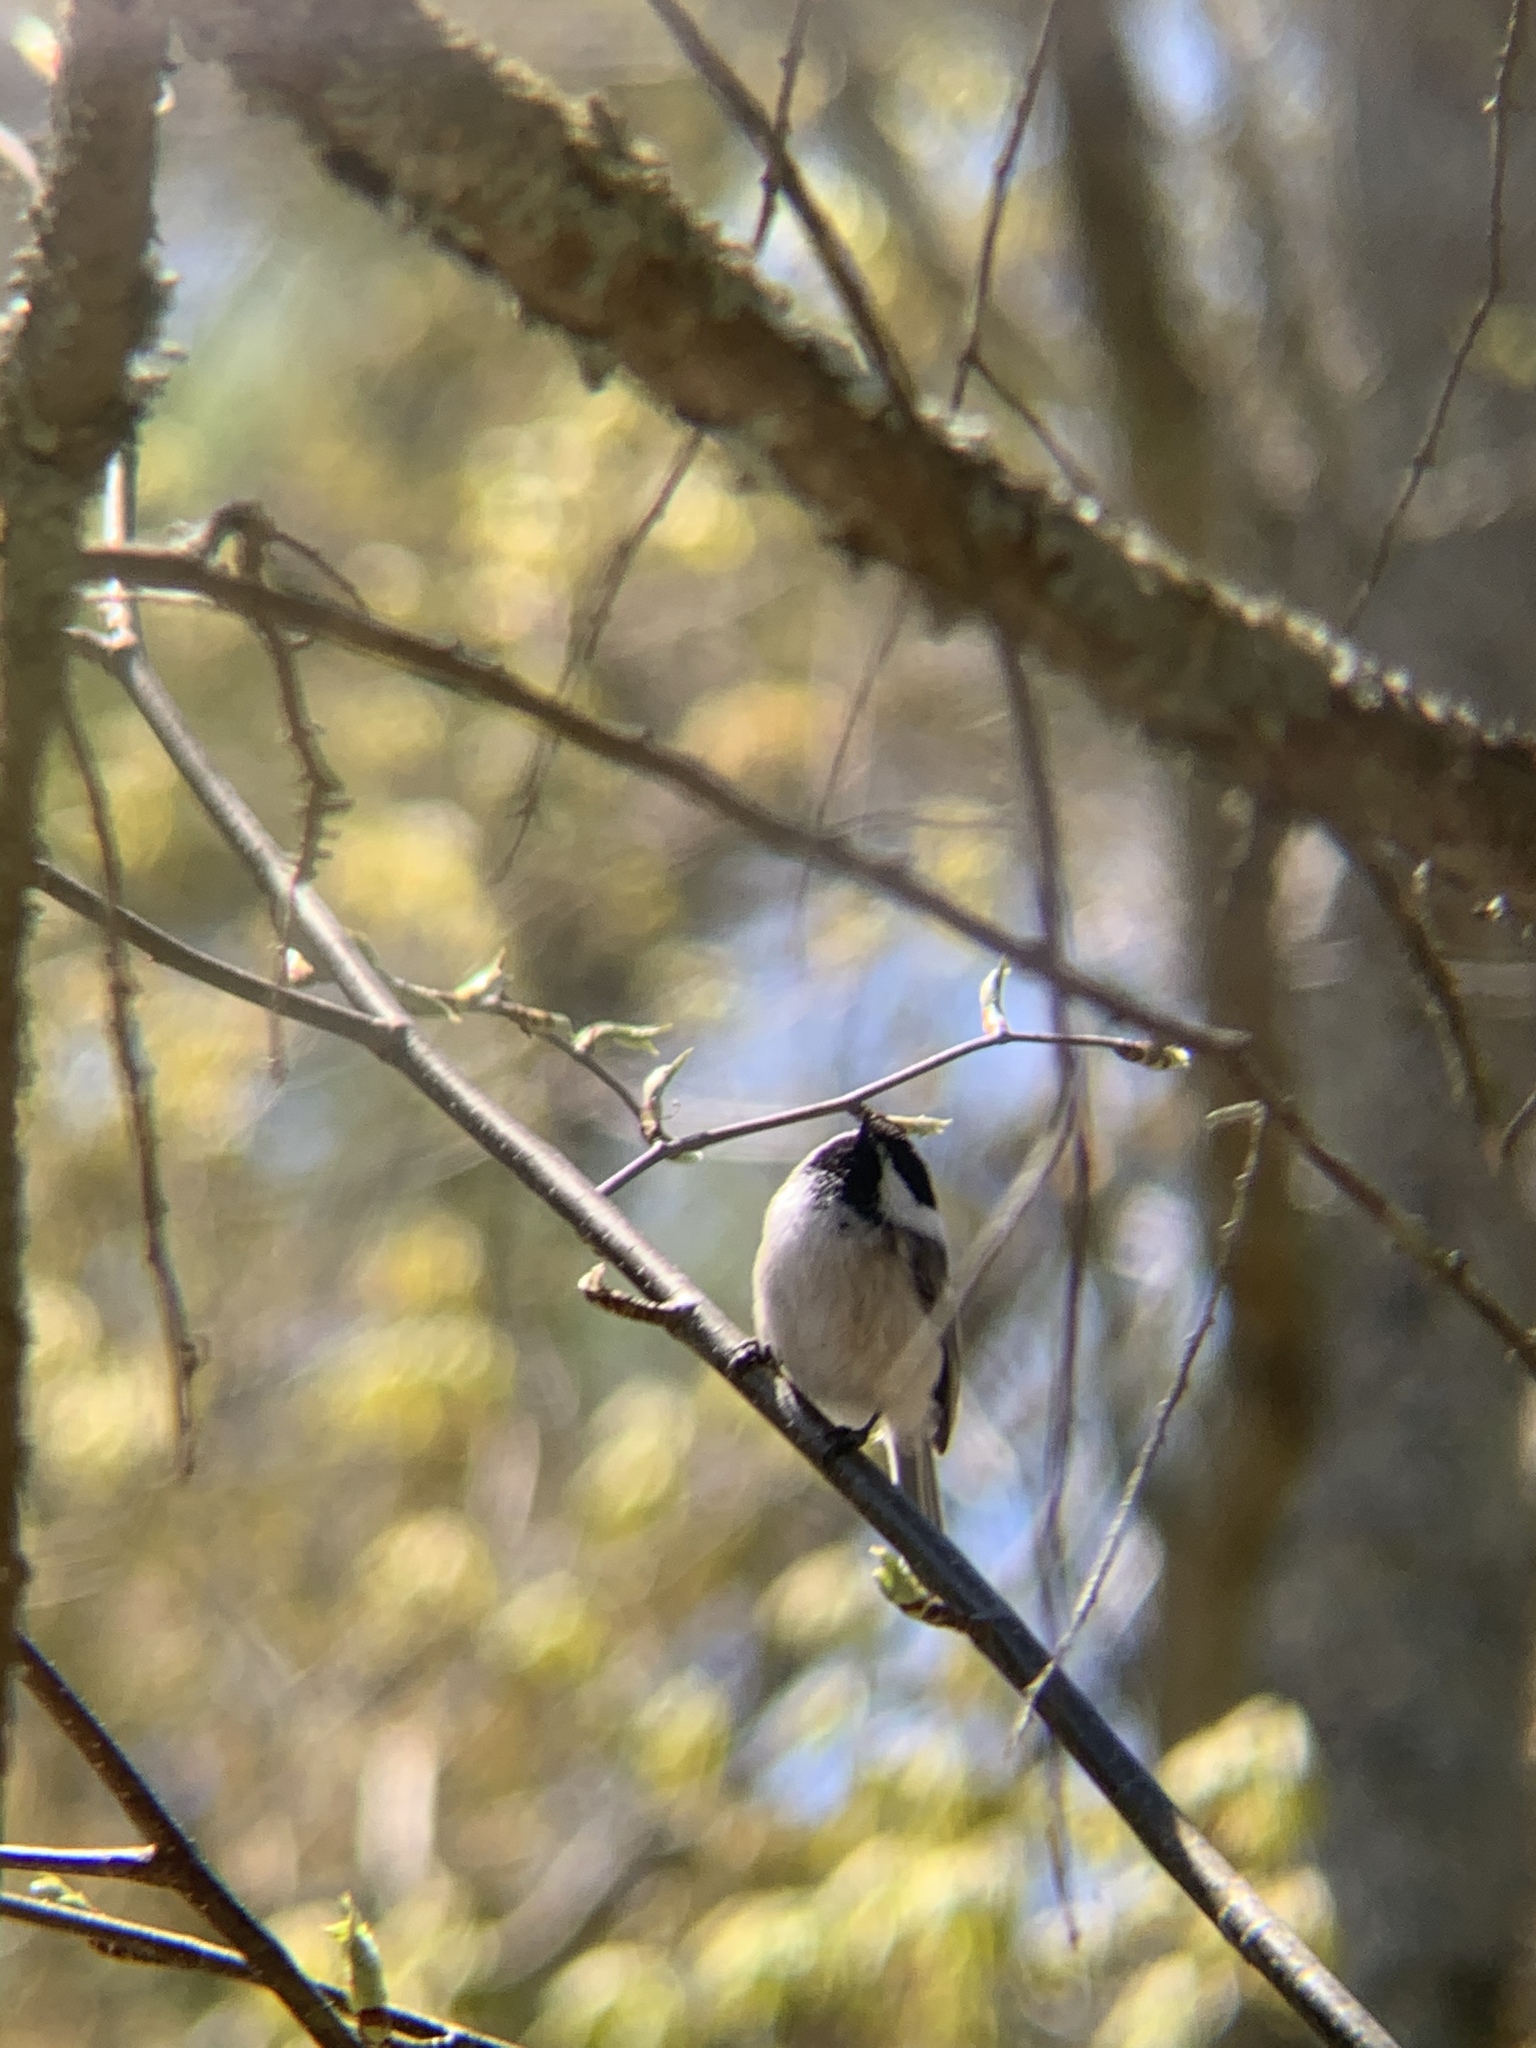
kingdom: Animalia
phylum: Chordata
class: Aves
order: Passeriformes
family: Paridae
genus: Poecile
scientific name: Poecile atricapillus
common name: Black-capped chickadee
